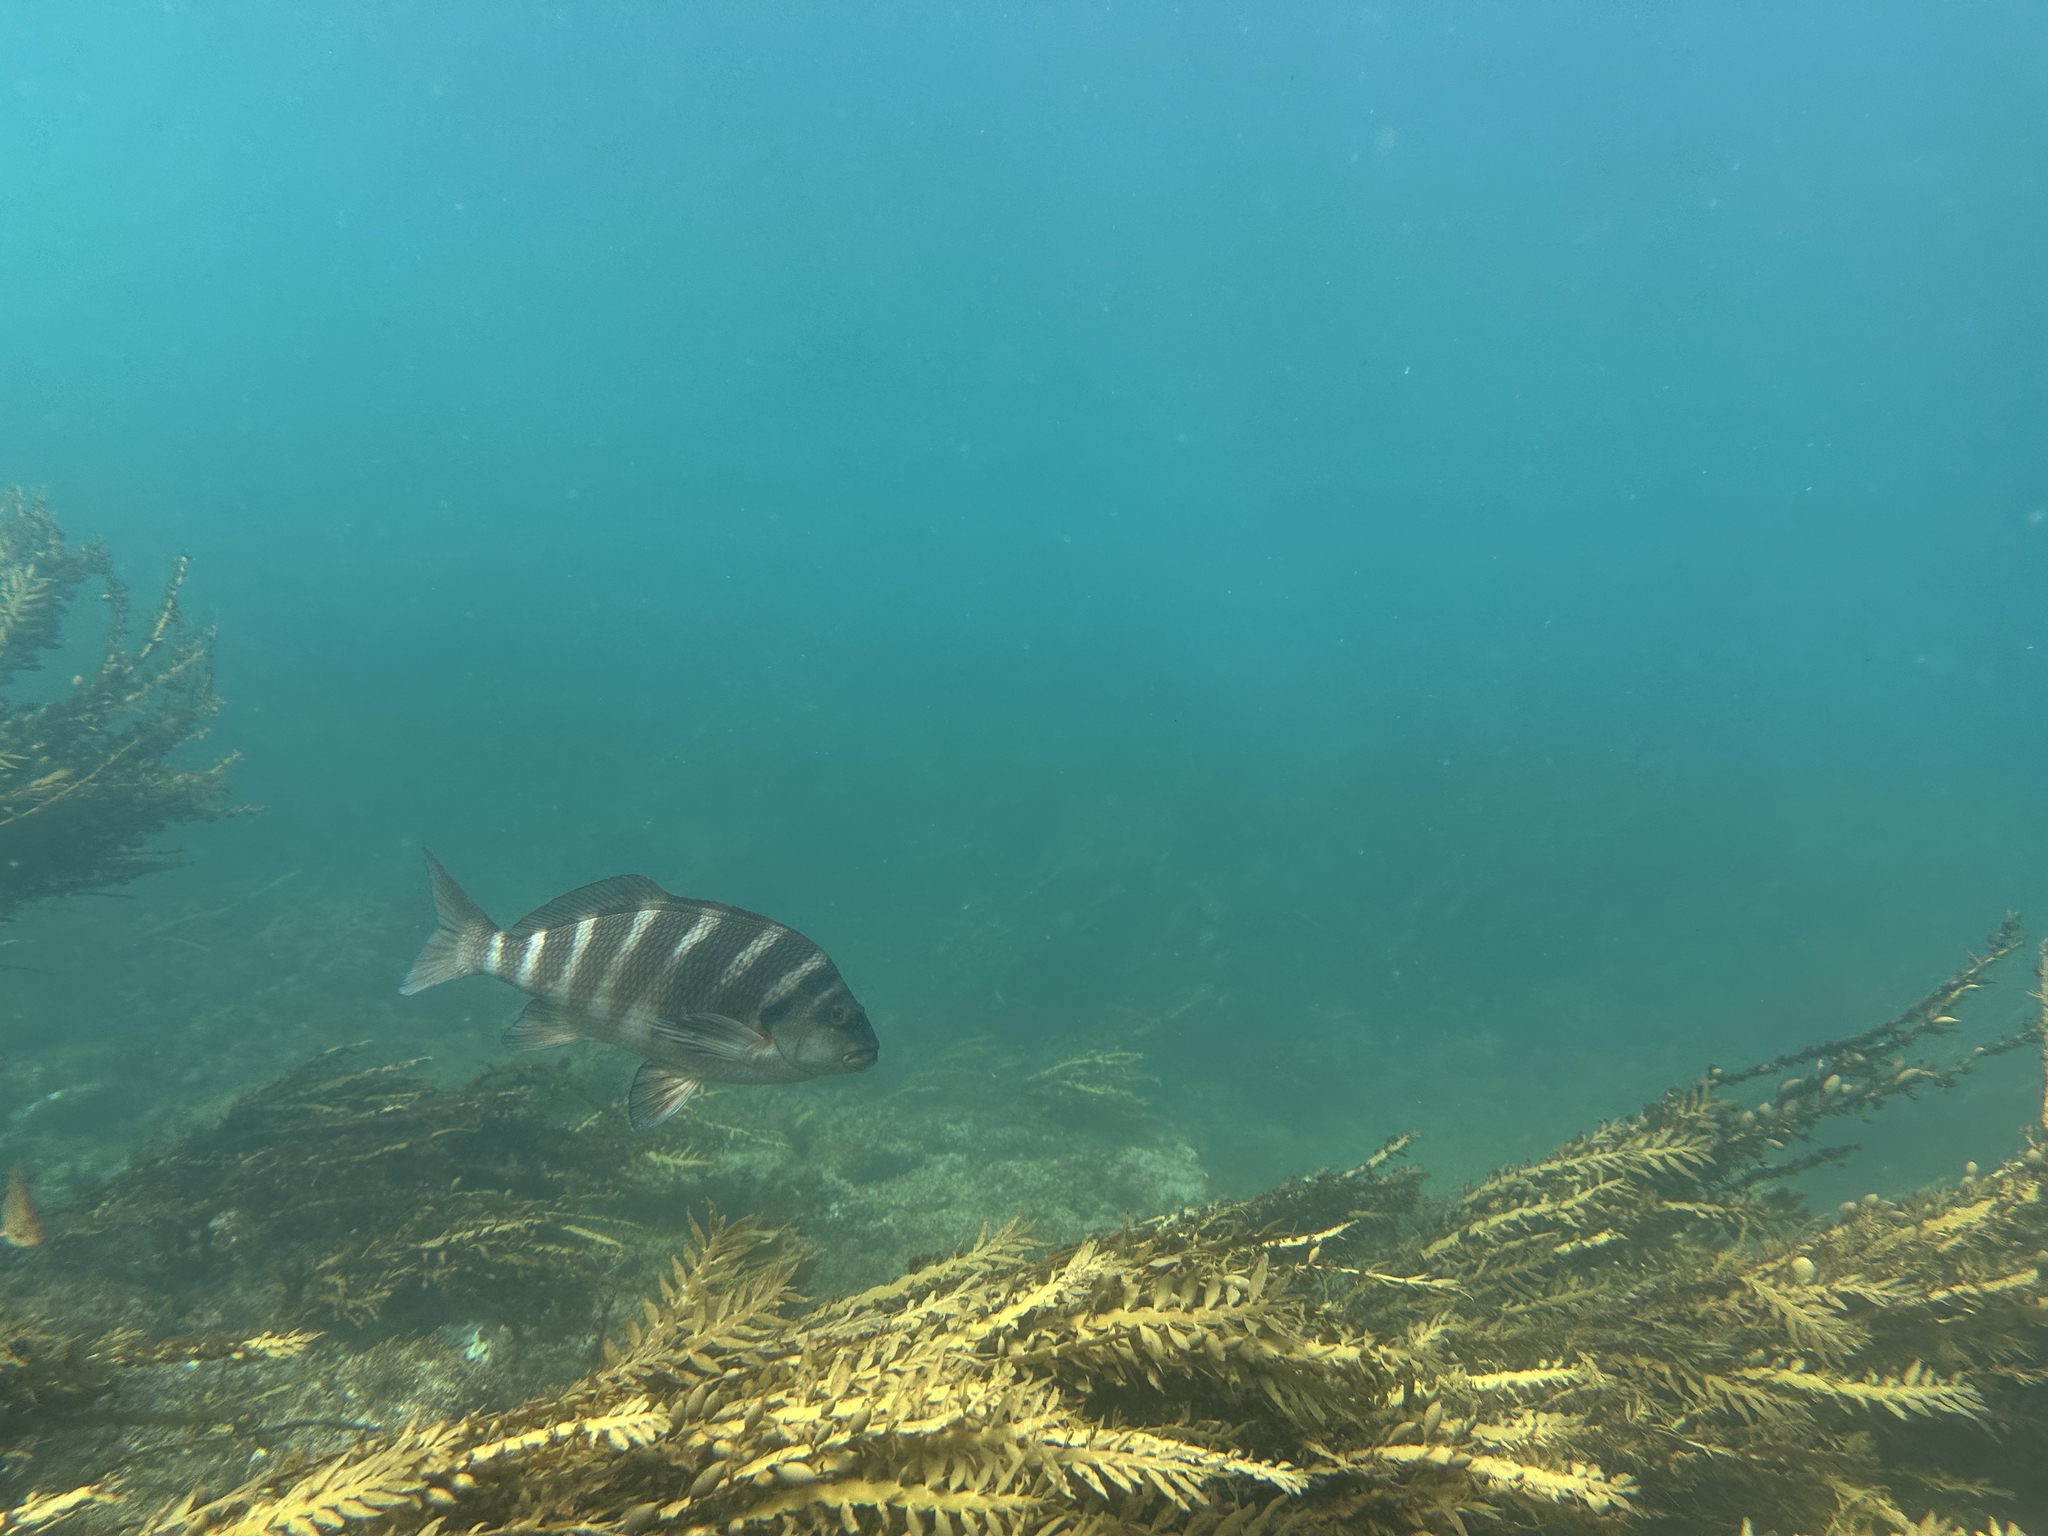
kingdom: Animalia
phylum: Chordata
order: Perciformes
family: Cheilodactylidae
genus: Cheilodactylus
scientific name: Cheilodactylus spectabilis
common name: Red moki
